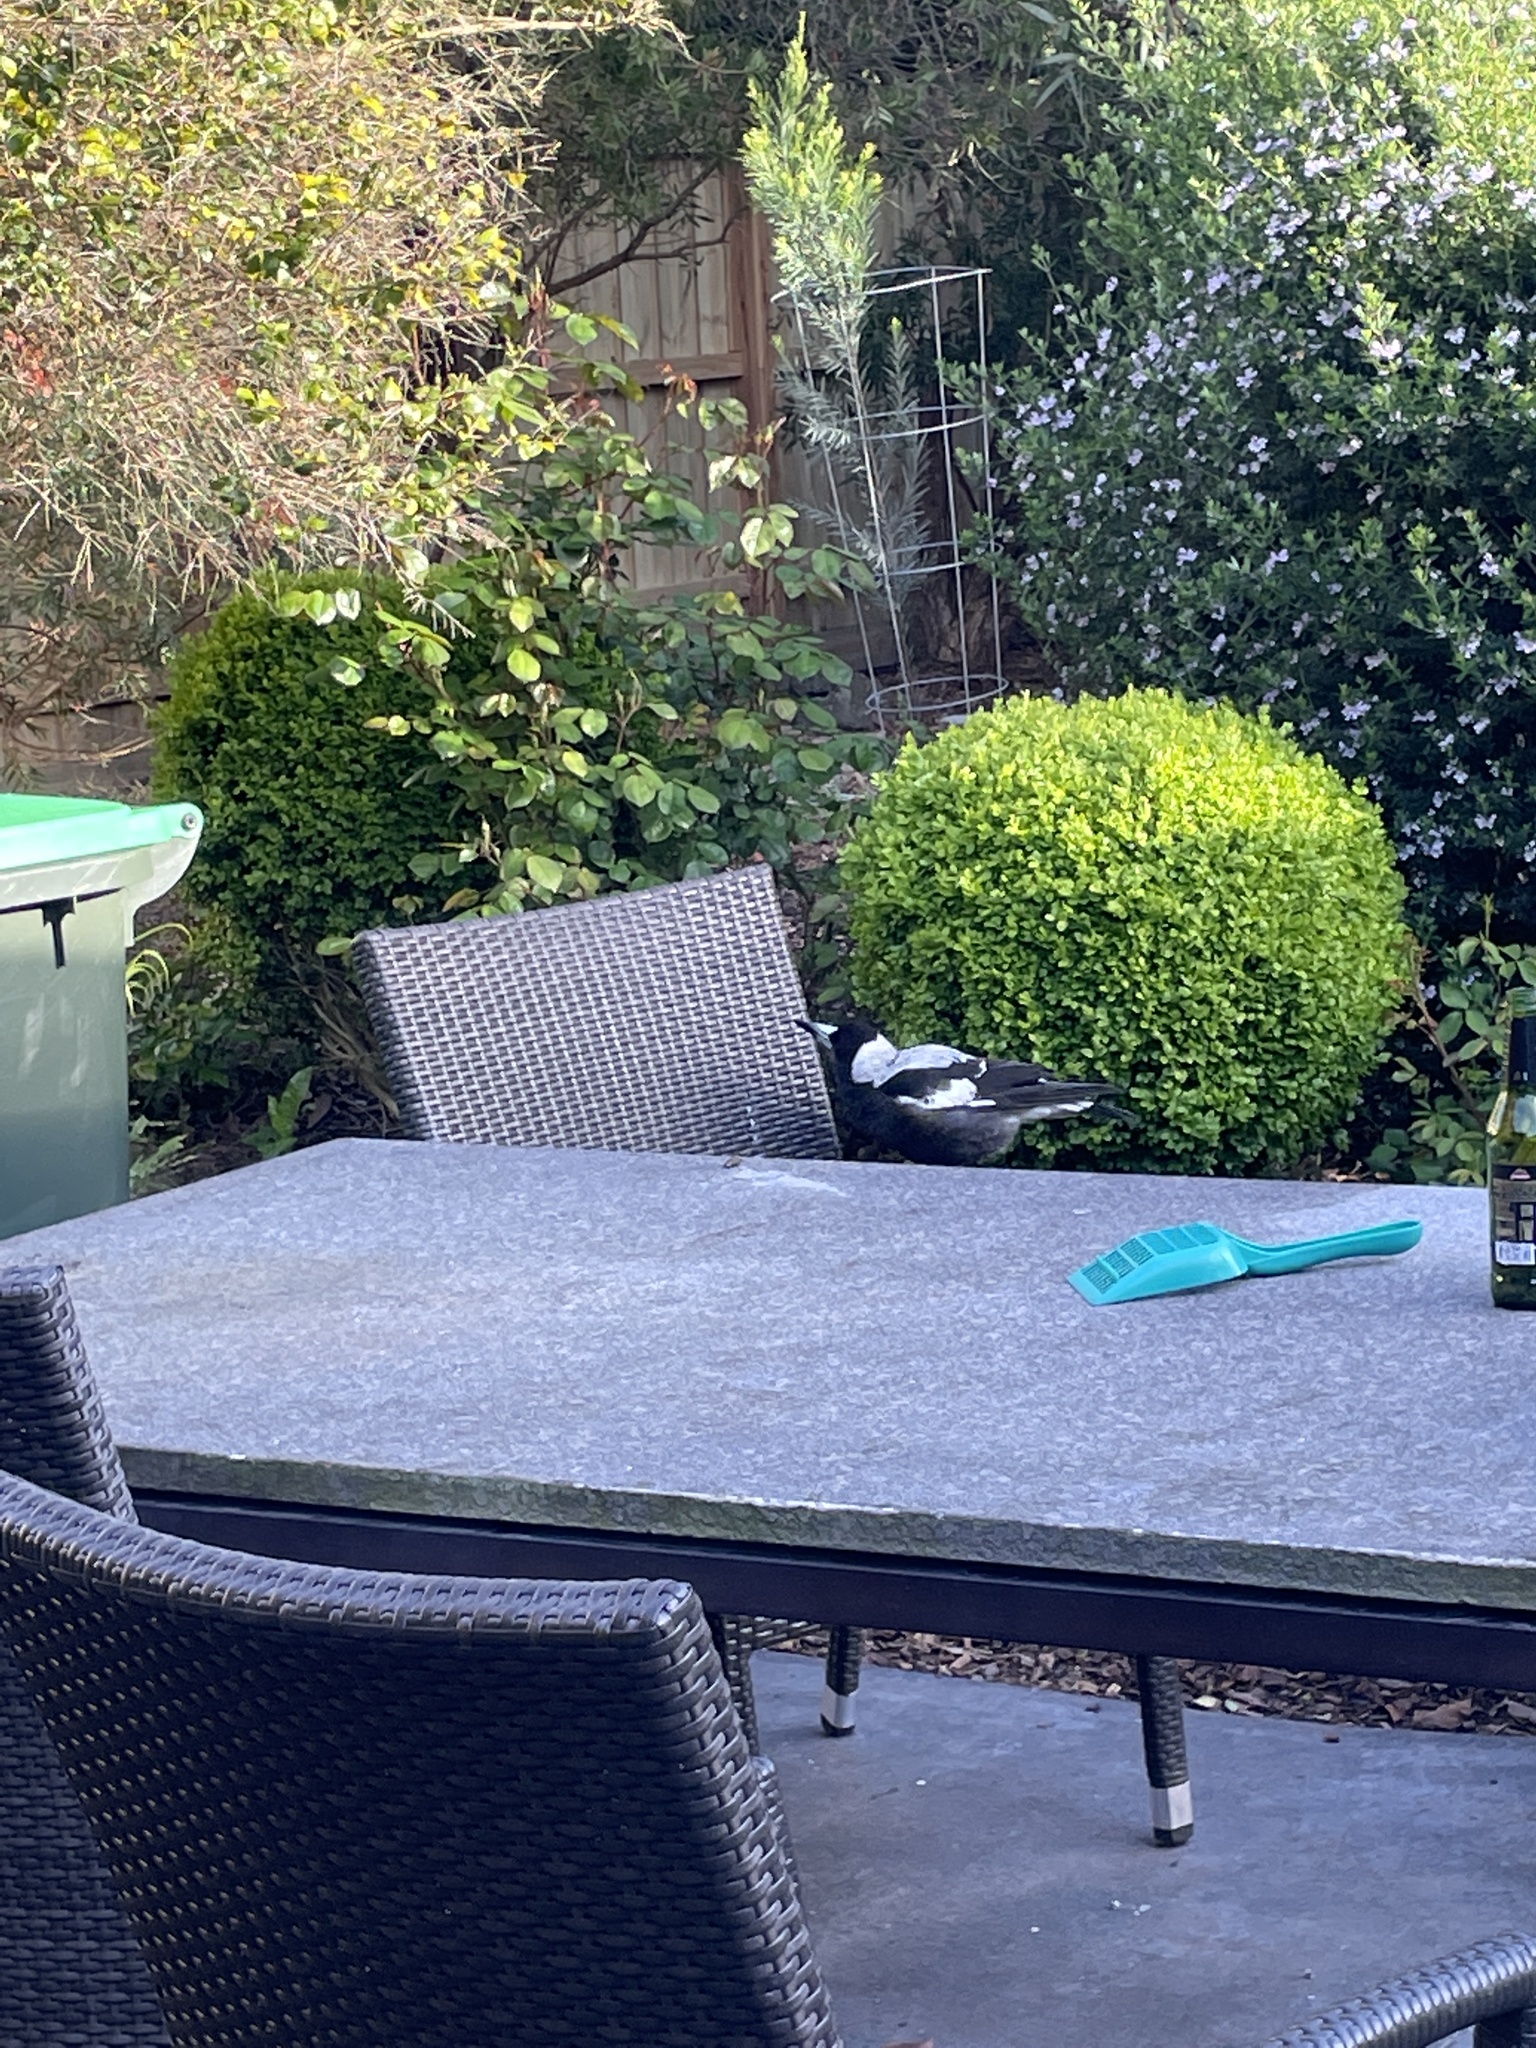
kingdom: Animalia
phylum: Chordata
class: Aves
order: Passeriformes
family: Cracticidae
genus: Gymnorhina
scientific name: Gymnorhina tibicen
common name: Australian magpie
